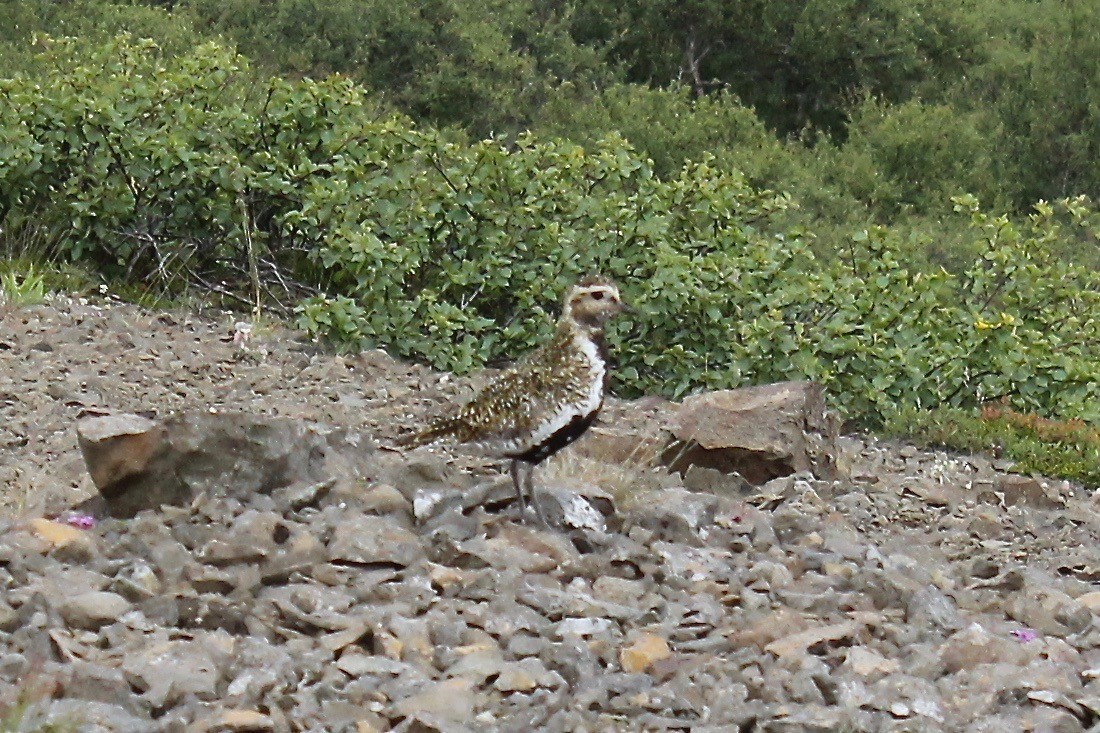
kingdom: Animalia
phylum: Chordata
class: Aves
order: Charadriiformes
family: Charadriidae
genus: Pluvialis
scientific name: Pluvialis apricaria
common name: European golden plover
